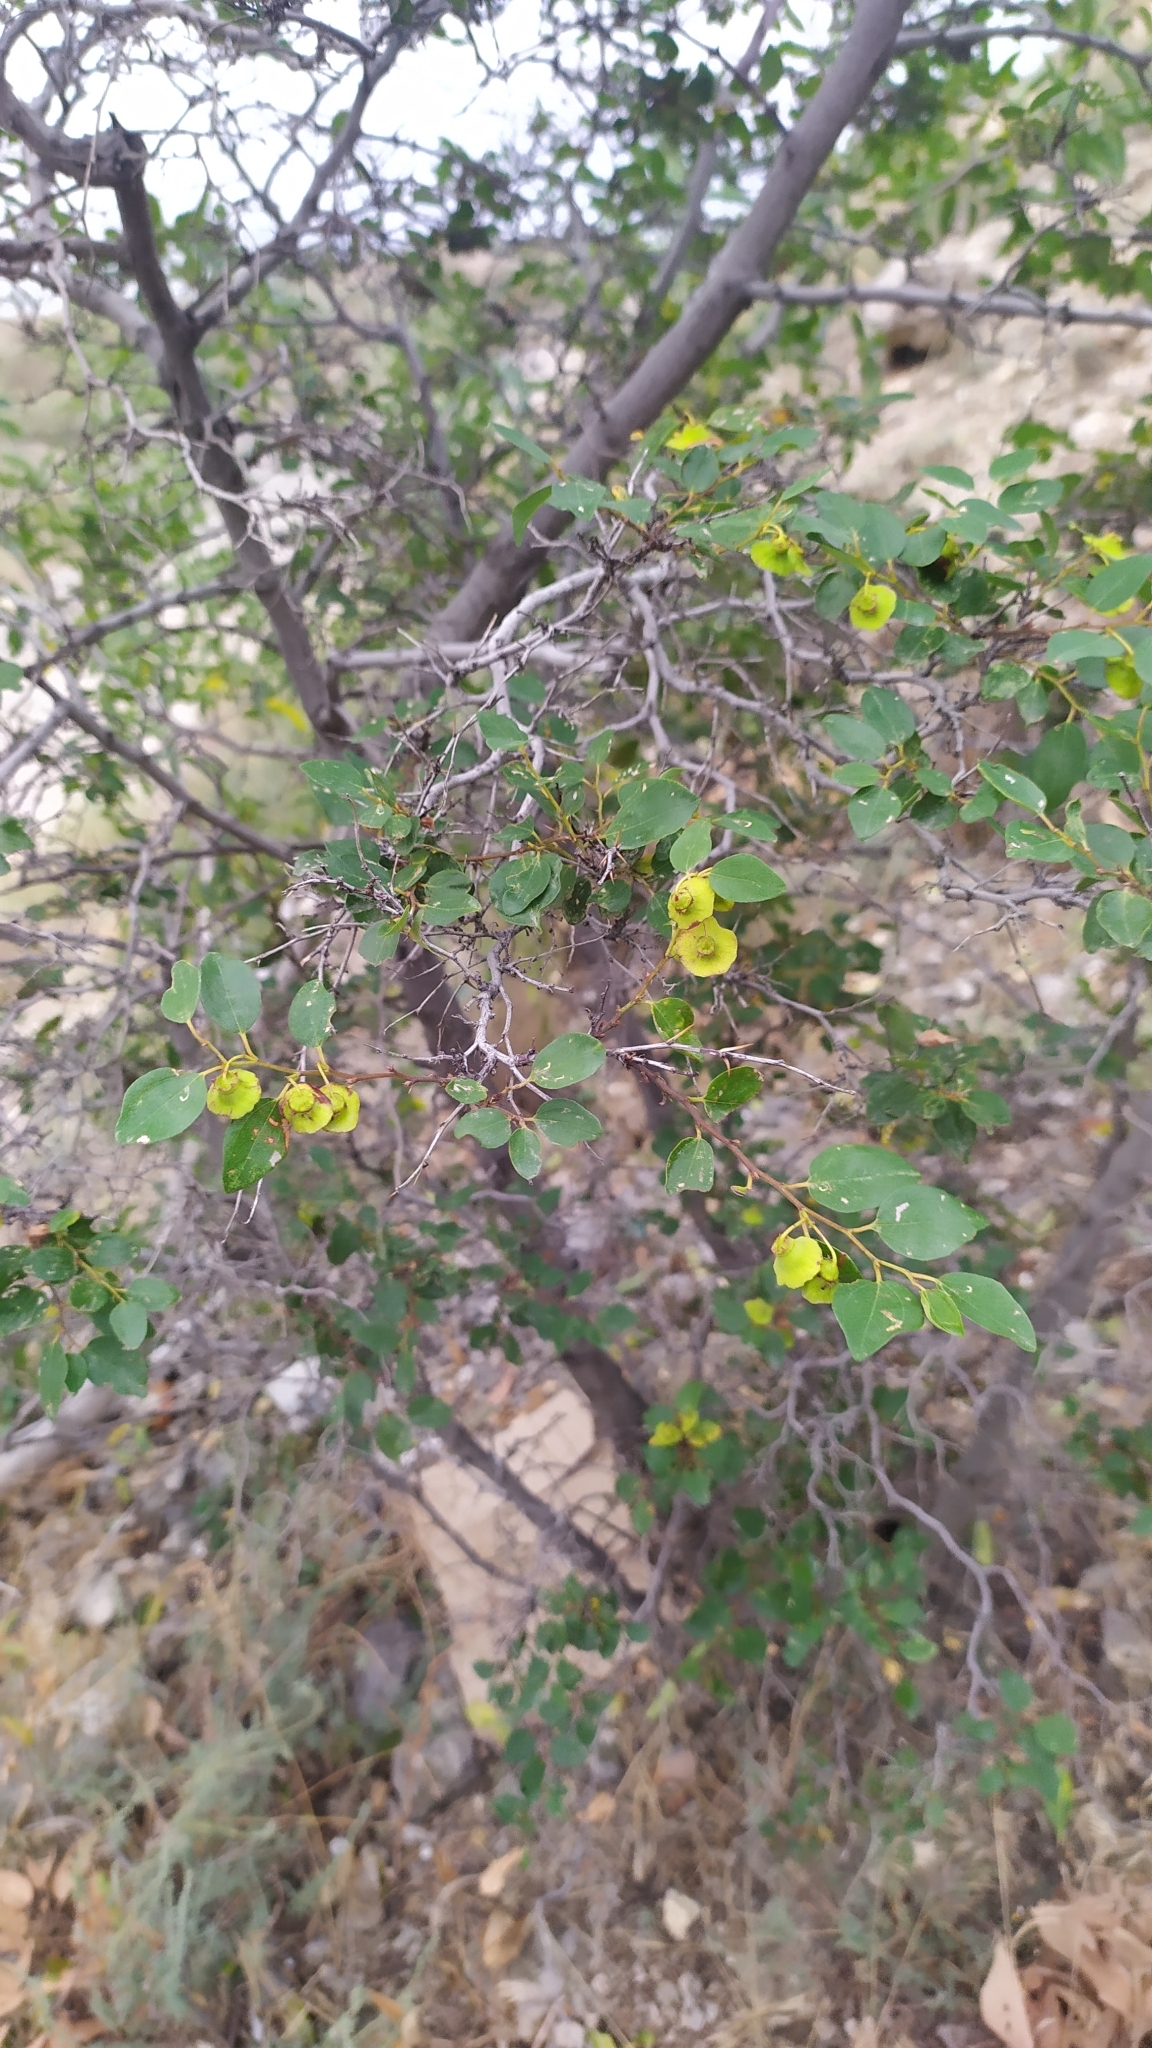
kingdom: Plantae
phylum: Tracheophyta
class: Magnoliopsida
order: Rosales
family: Rhamnaceae
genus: Paliurus
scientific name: Paliurus spina-christi
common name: Jeruselem thorn
